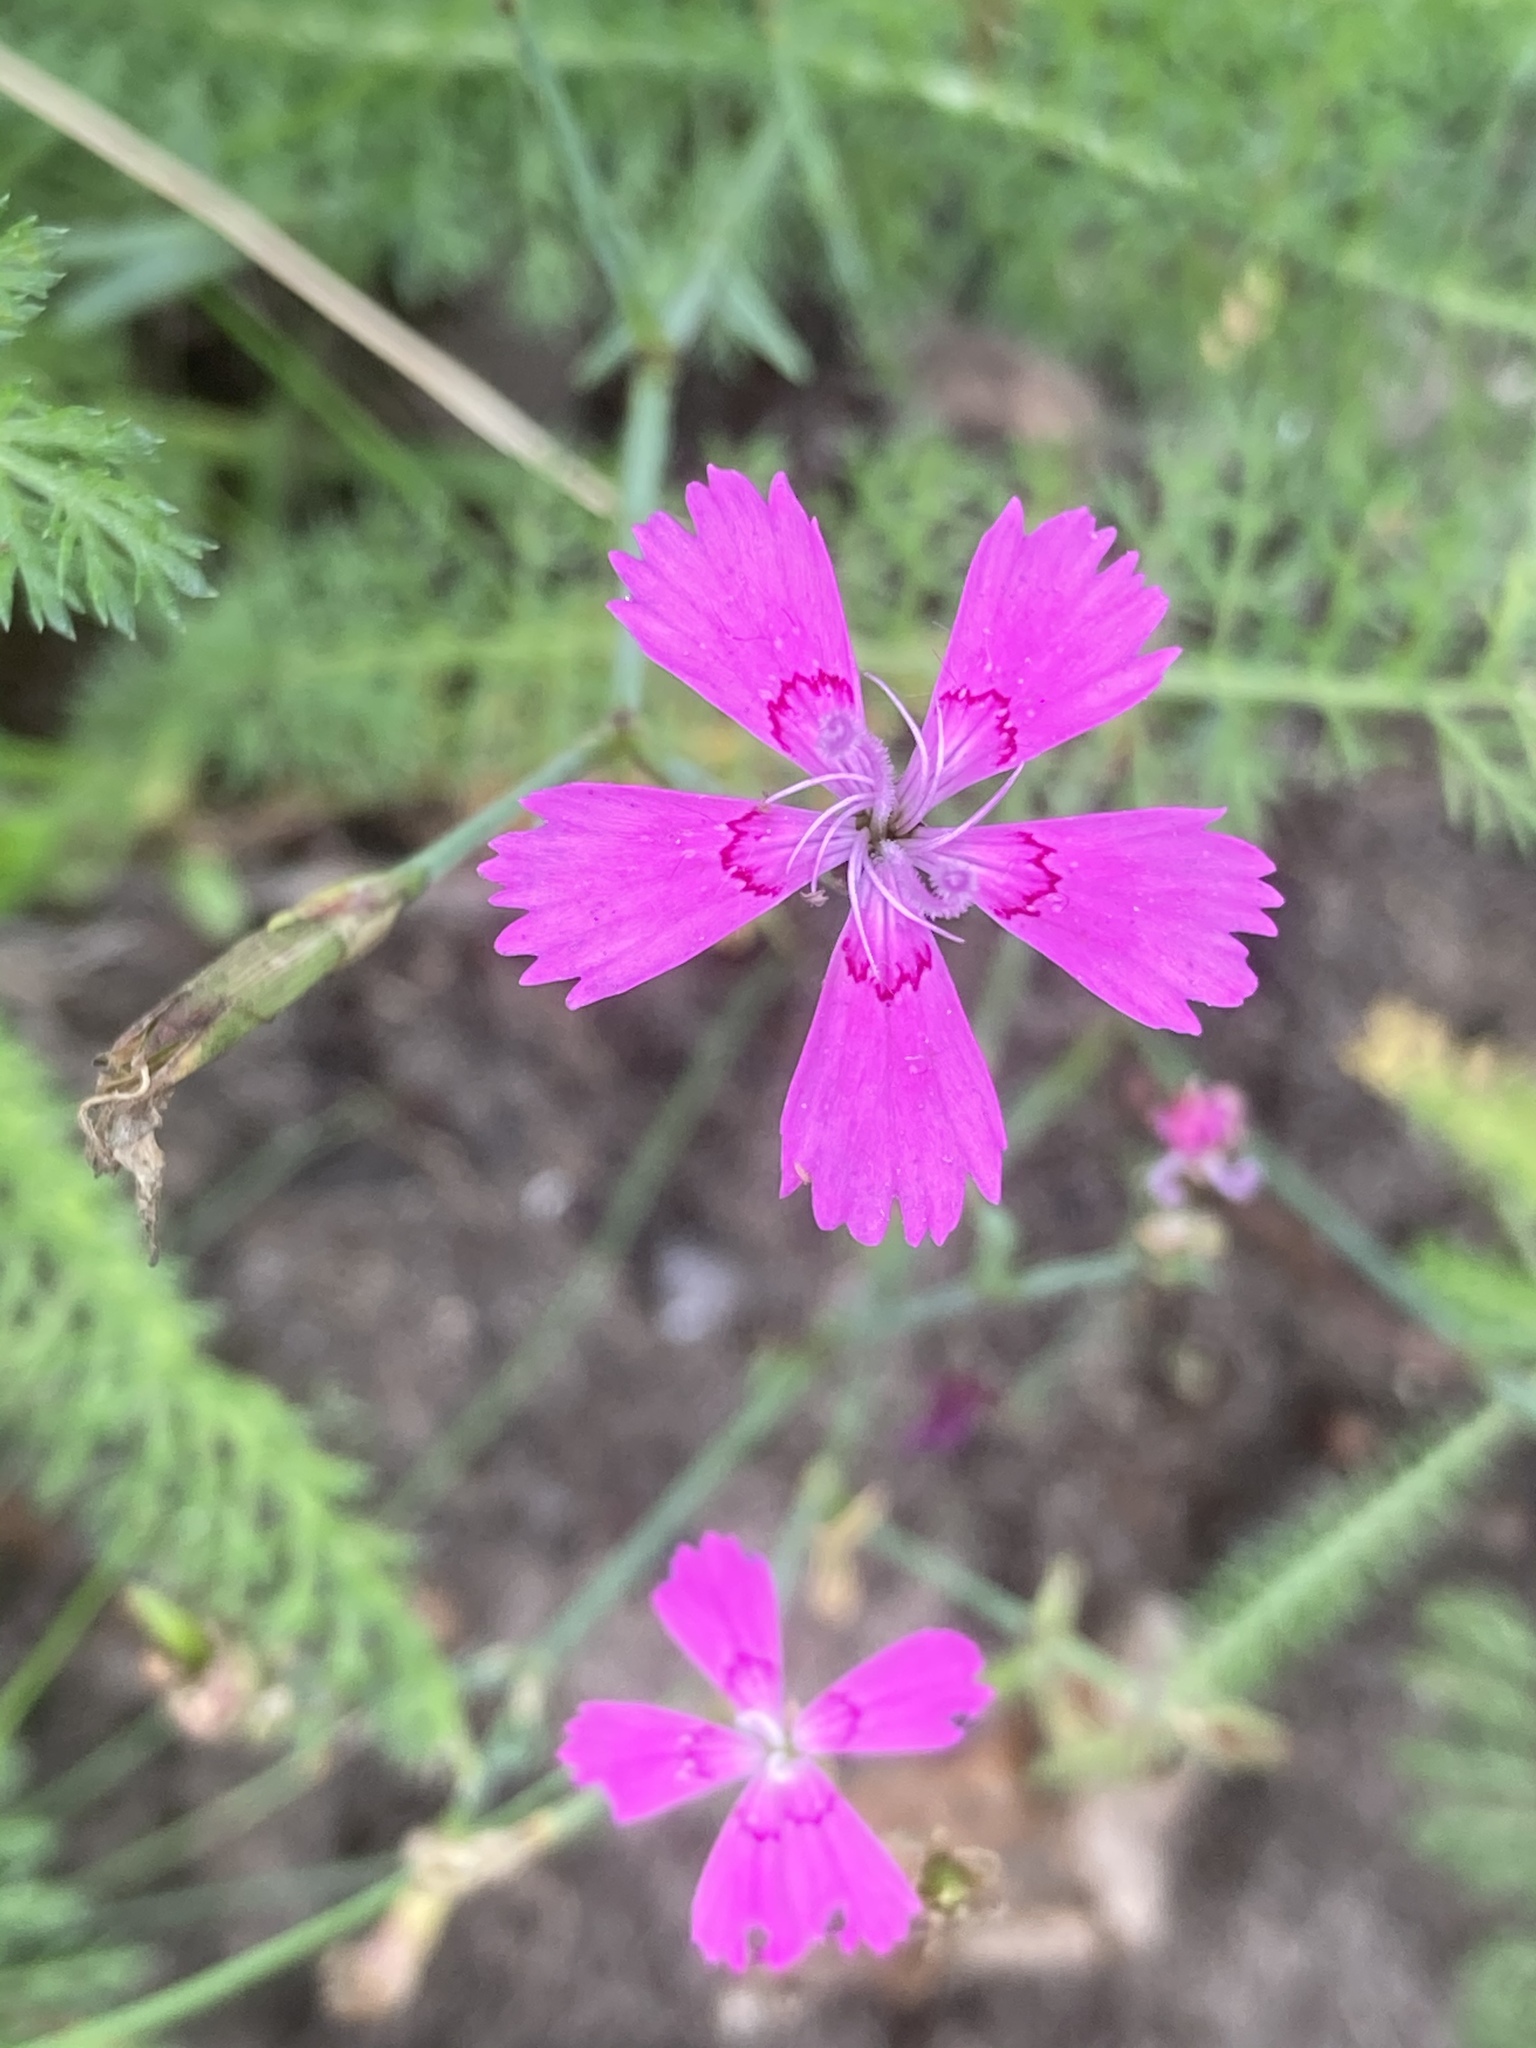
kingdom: Plantae
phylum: Tracheophyta
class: Magnoliopsida
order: Caryophyllales
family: Caryophyllaceae
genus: Dianthus
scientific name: Dianthus deltoides
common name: Maiden pink
